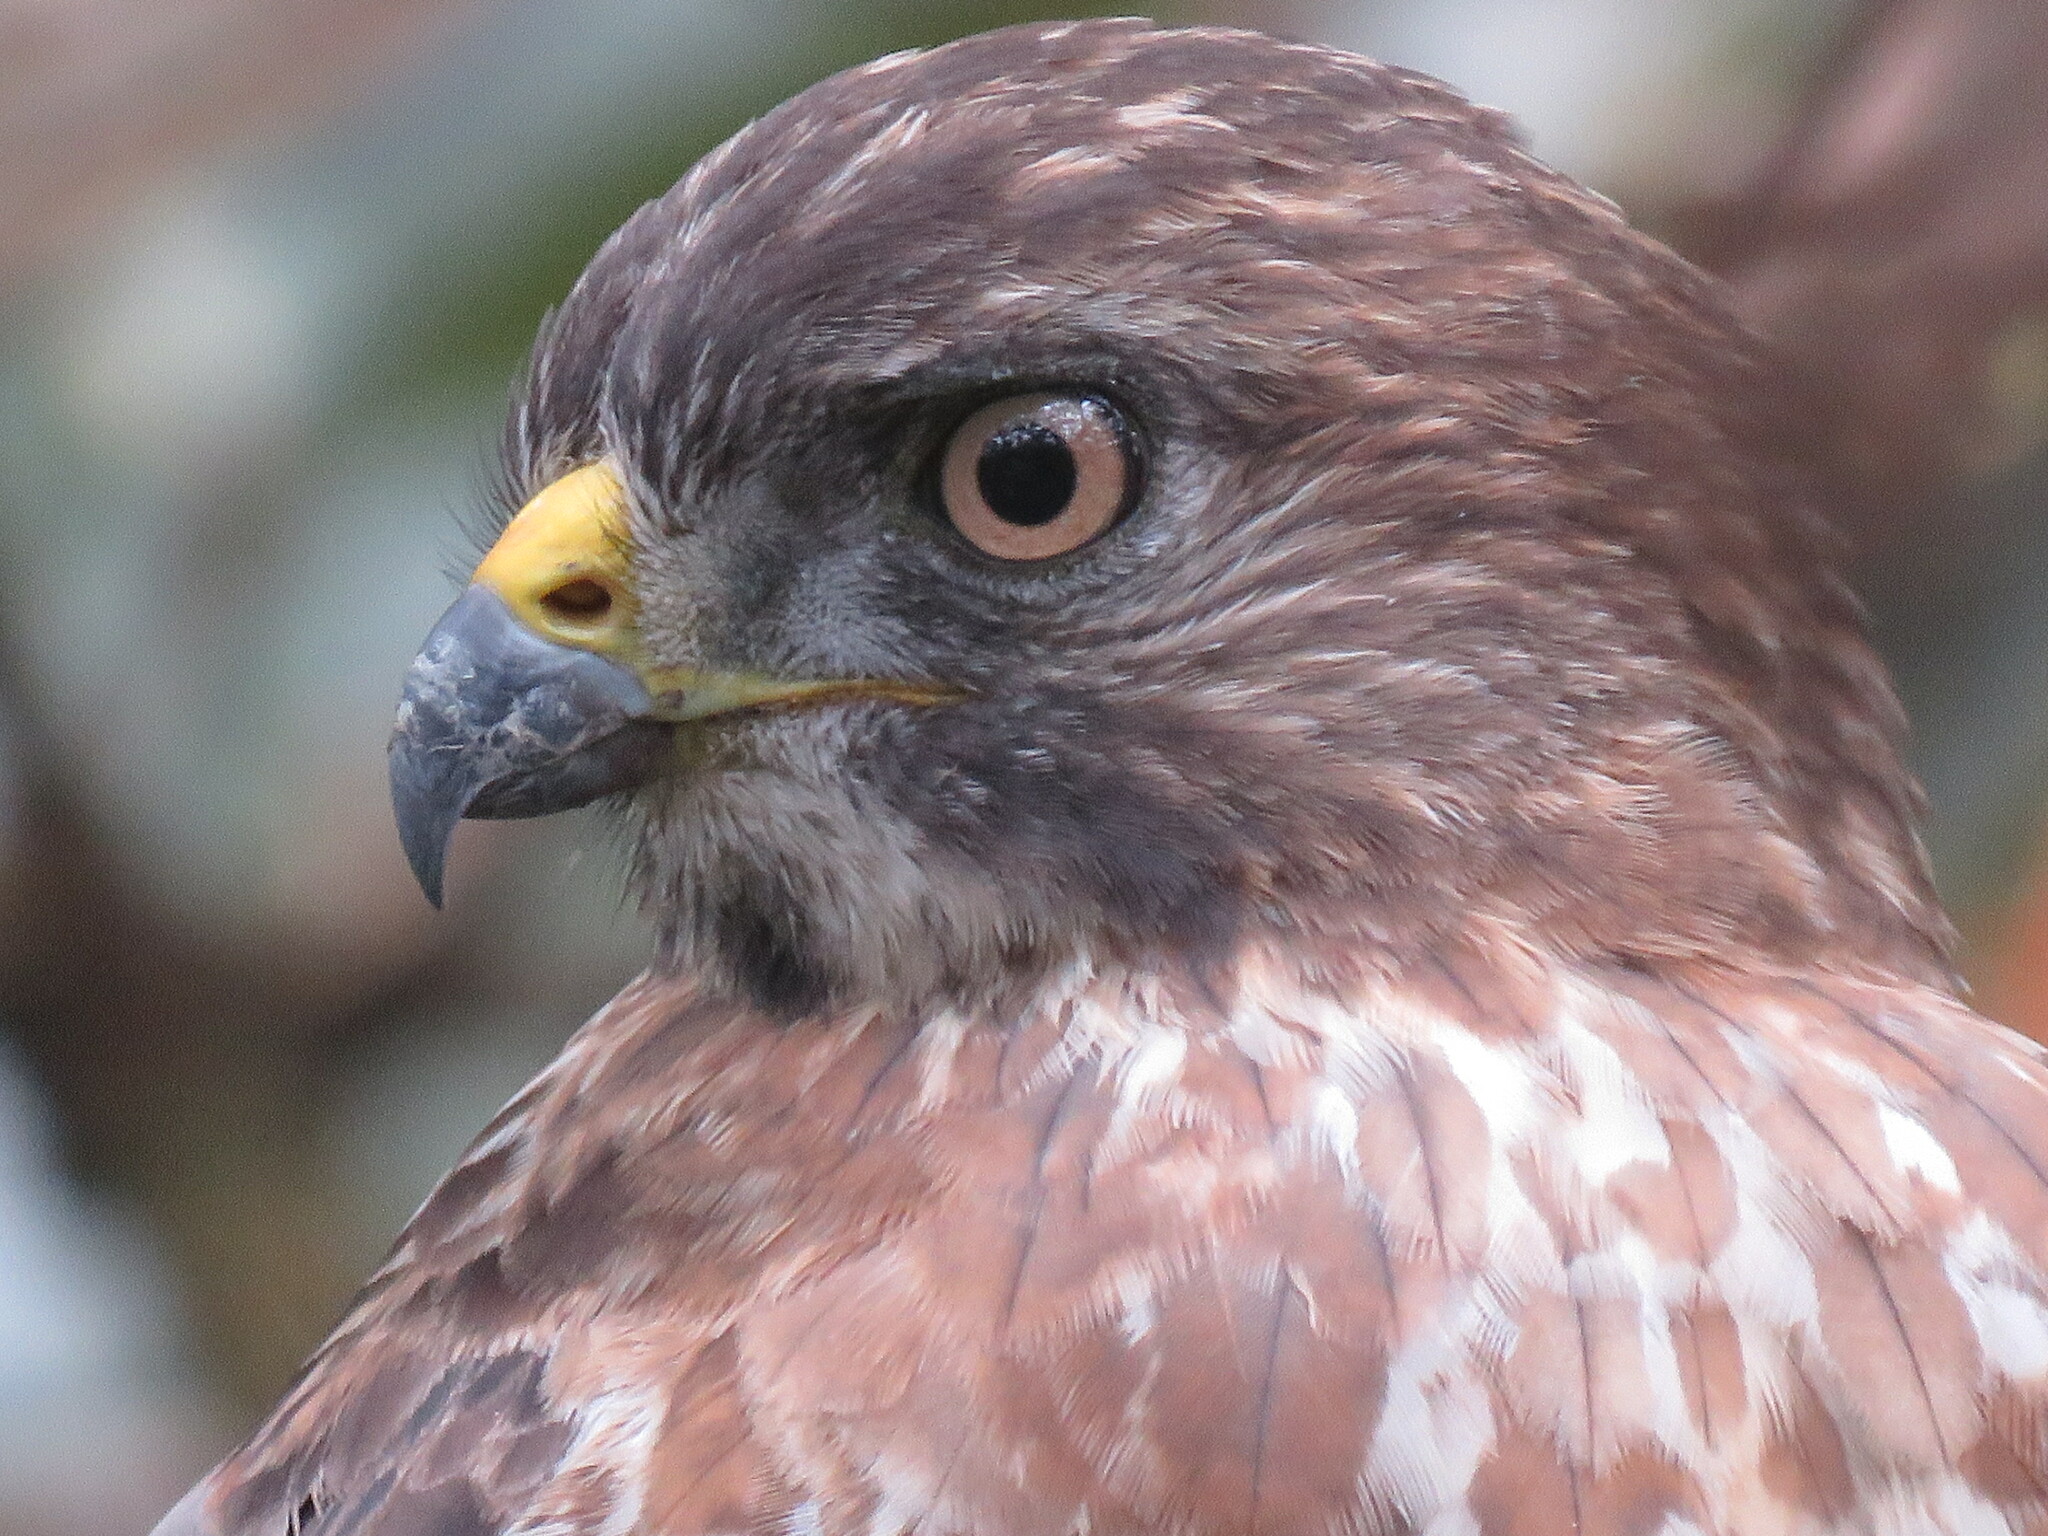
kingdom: Animalia
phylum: Chordata
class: Aves
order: Accipitriformes
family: Accipitridae
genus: Buteo
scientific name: Buteo platypterus
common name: Broad-winged hawk
